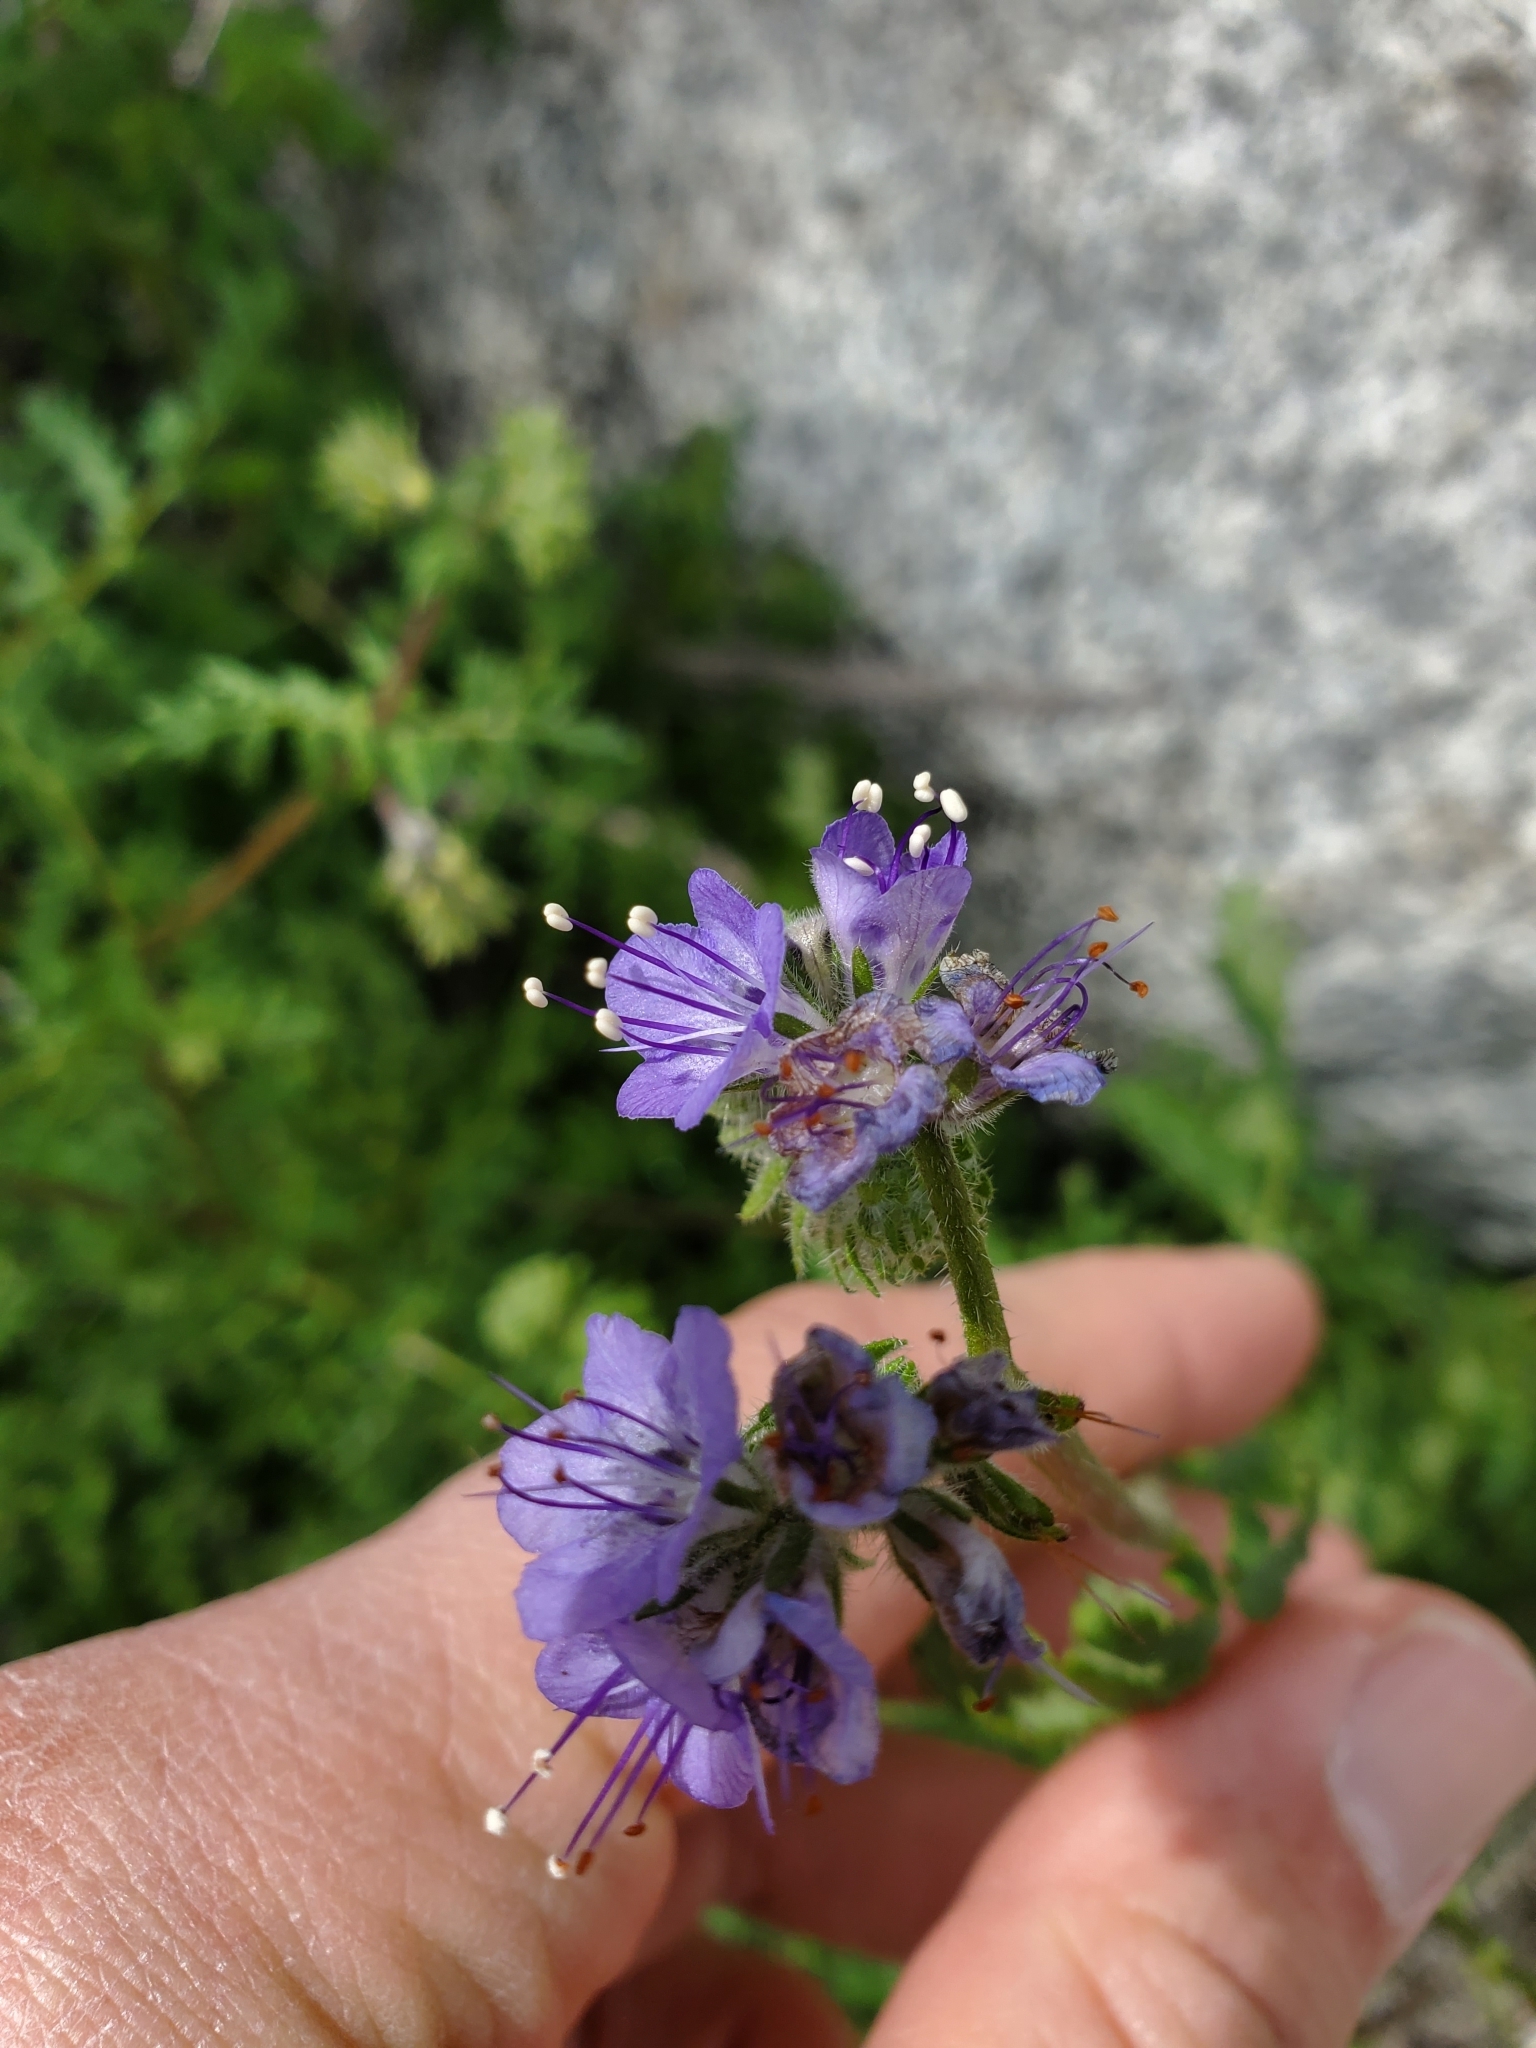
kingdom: Plantae
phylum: Tracheophyta
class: Magnoliopsida
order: Boraginales
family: Hydrophyllaceae
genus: Phacelia
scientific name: Phacelia distans
